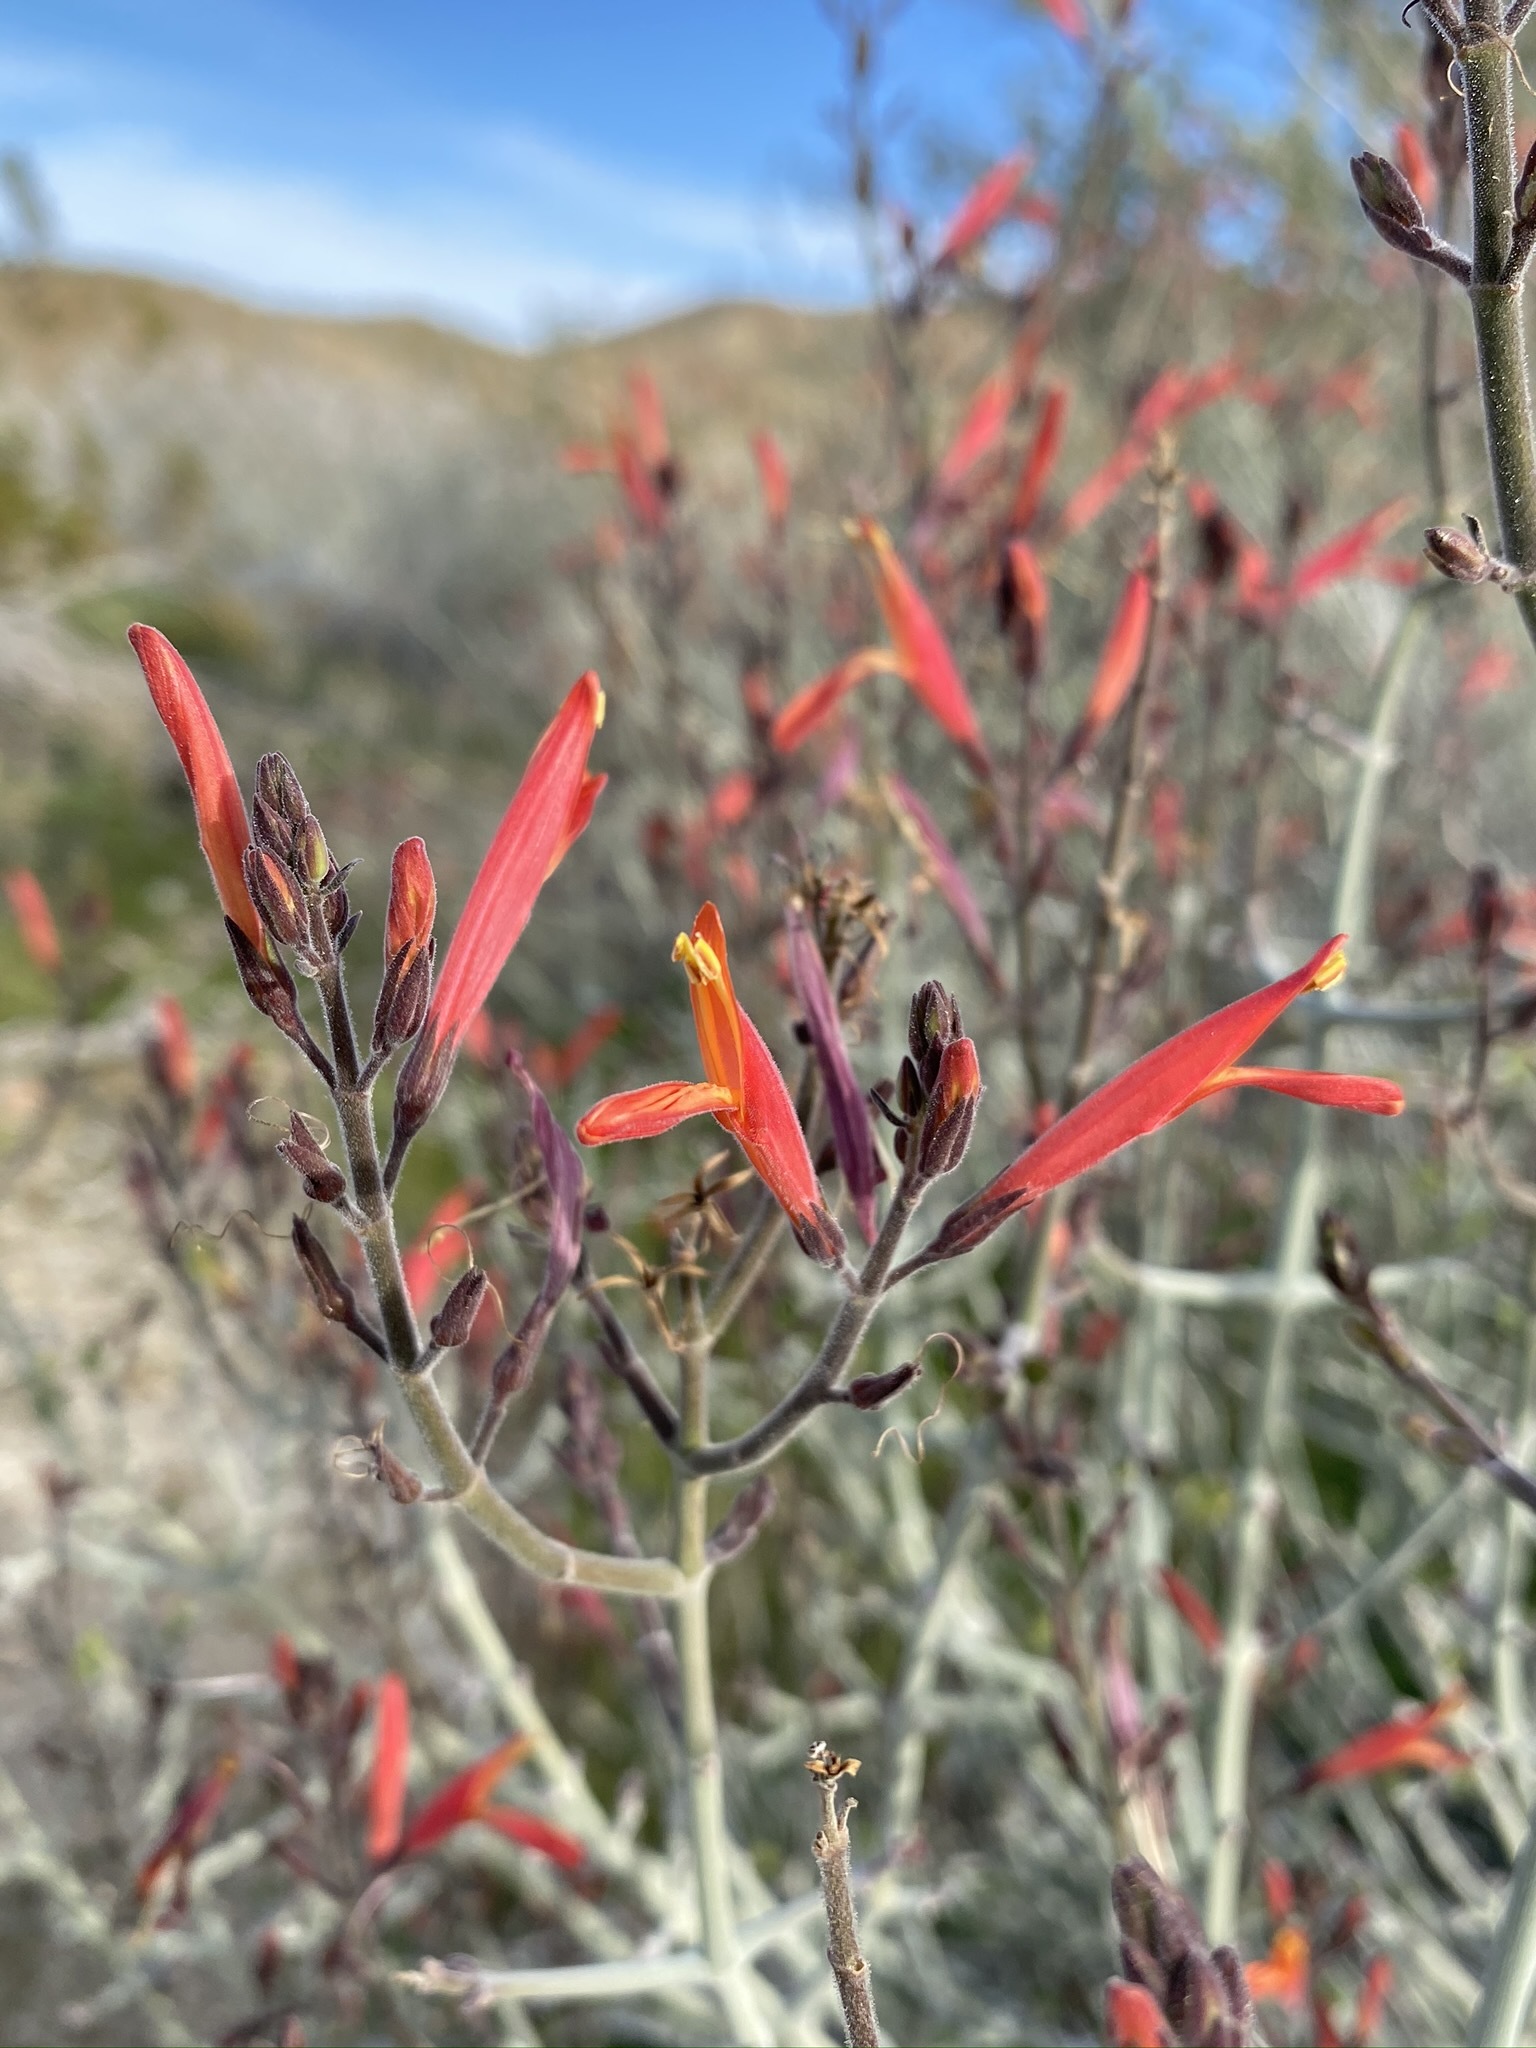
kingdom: Plantae
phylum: Tracheophyta
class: Magnoliopsida
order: Lamiales
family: Acanthaceae
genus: Justicia
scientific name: Justicia californica
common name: Chuparosa-honeysuckle
